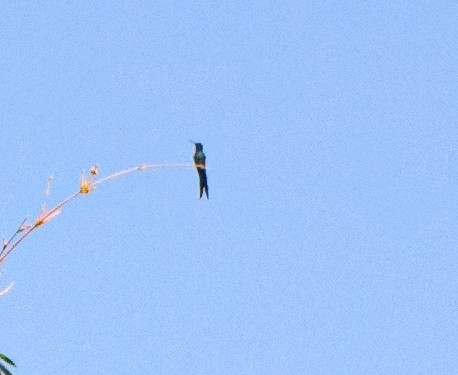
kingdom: Animalia
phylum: Chordata
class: Aves
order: Apodiformes
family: Trochilidae
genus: Eupetomena
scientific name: Eupetomena macroura
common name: Swallow-tailed hummingbird
